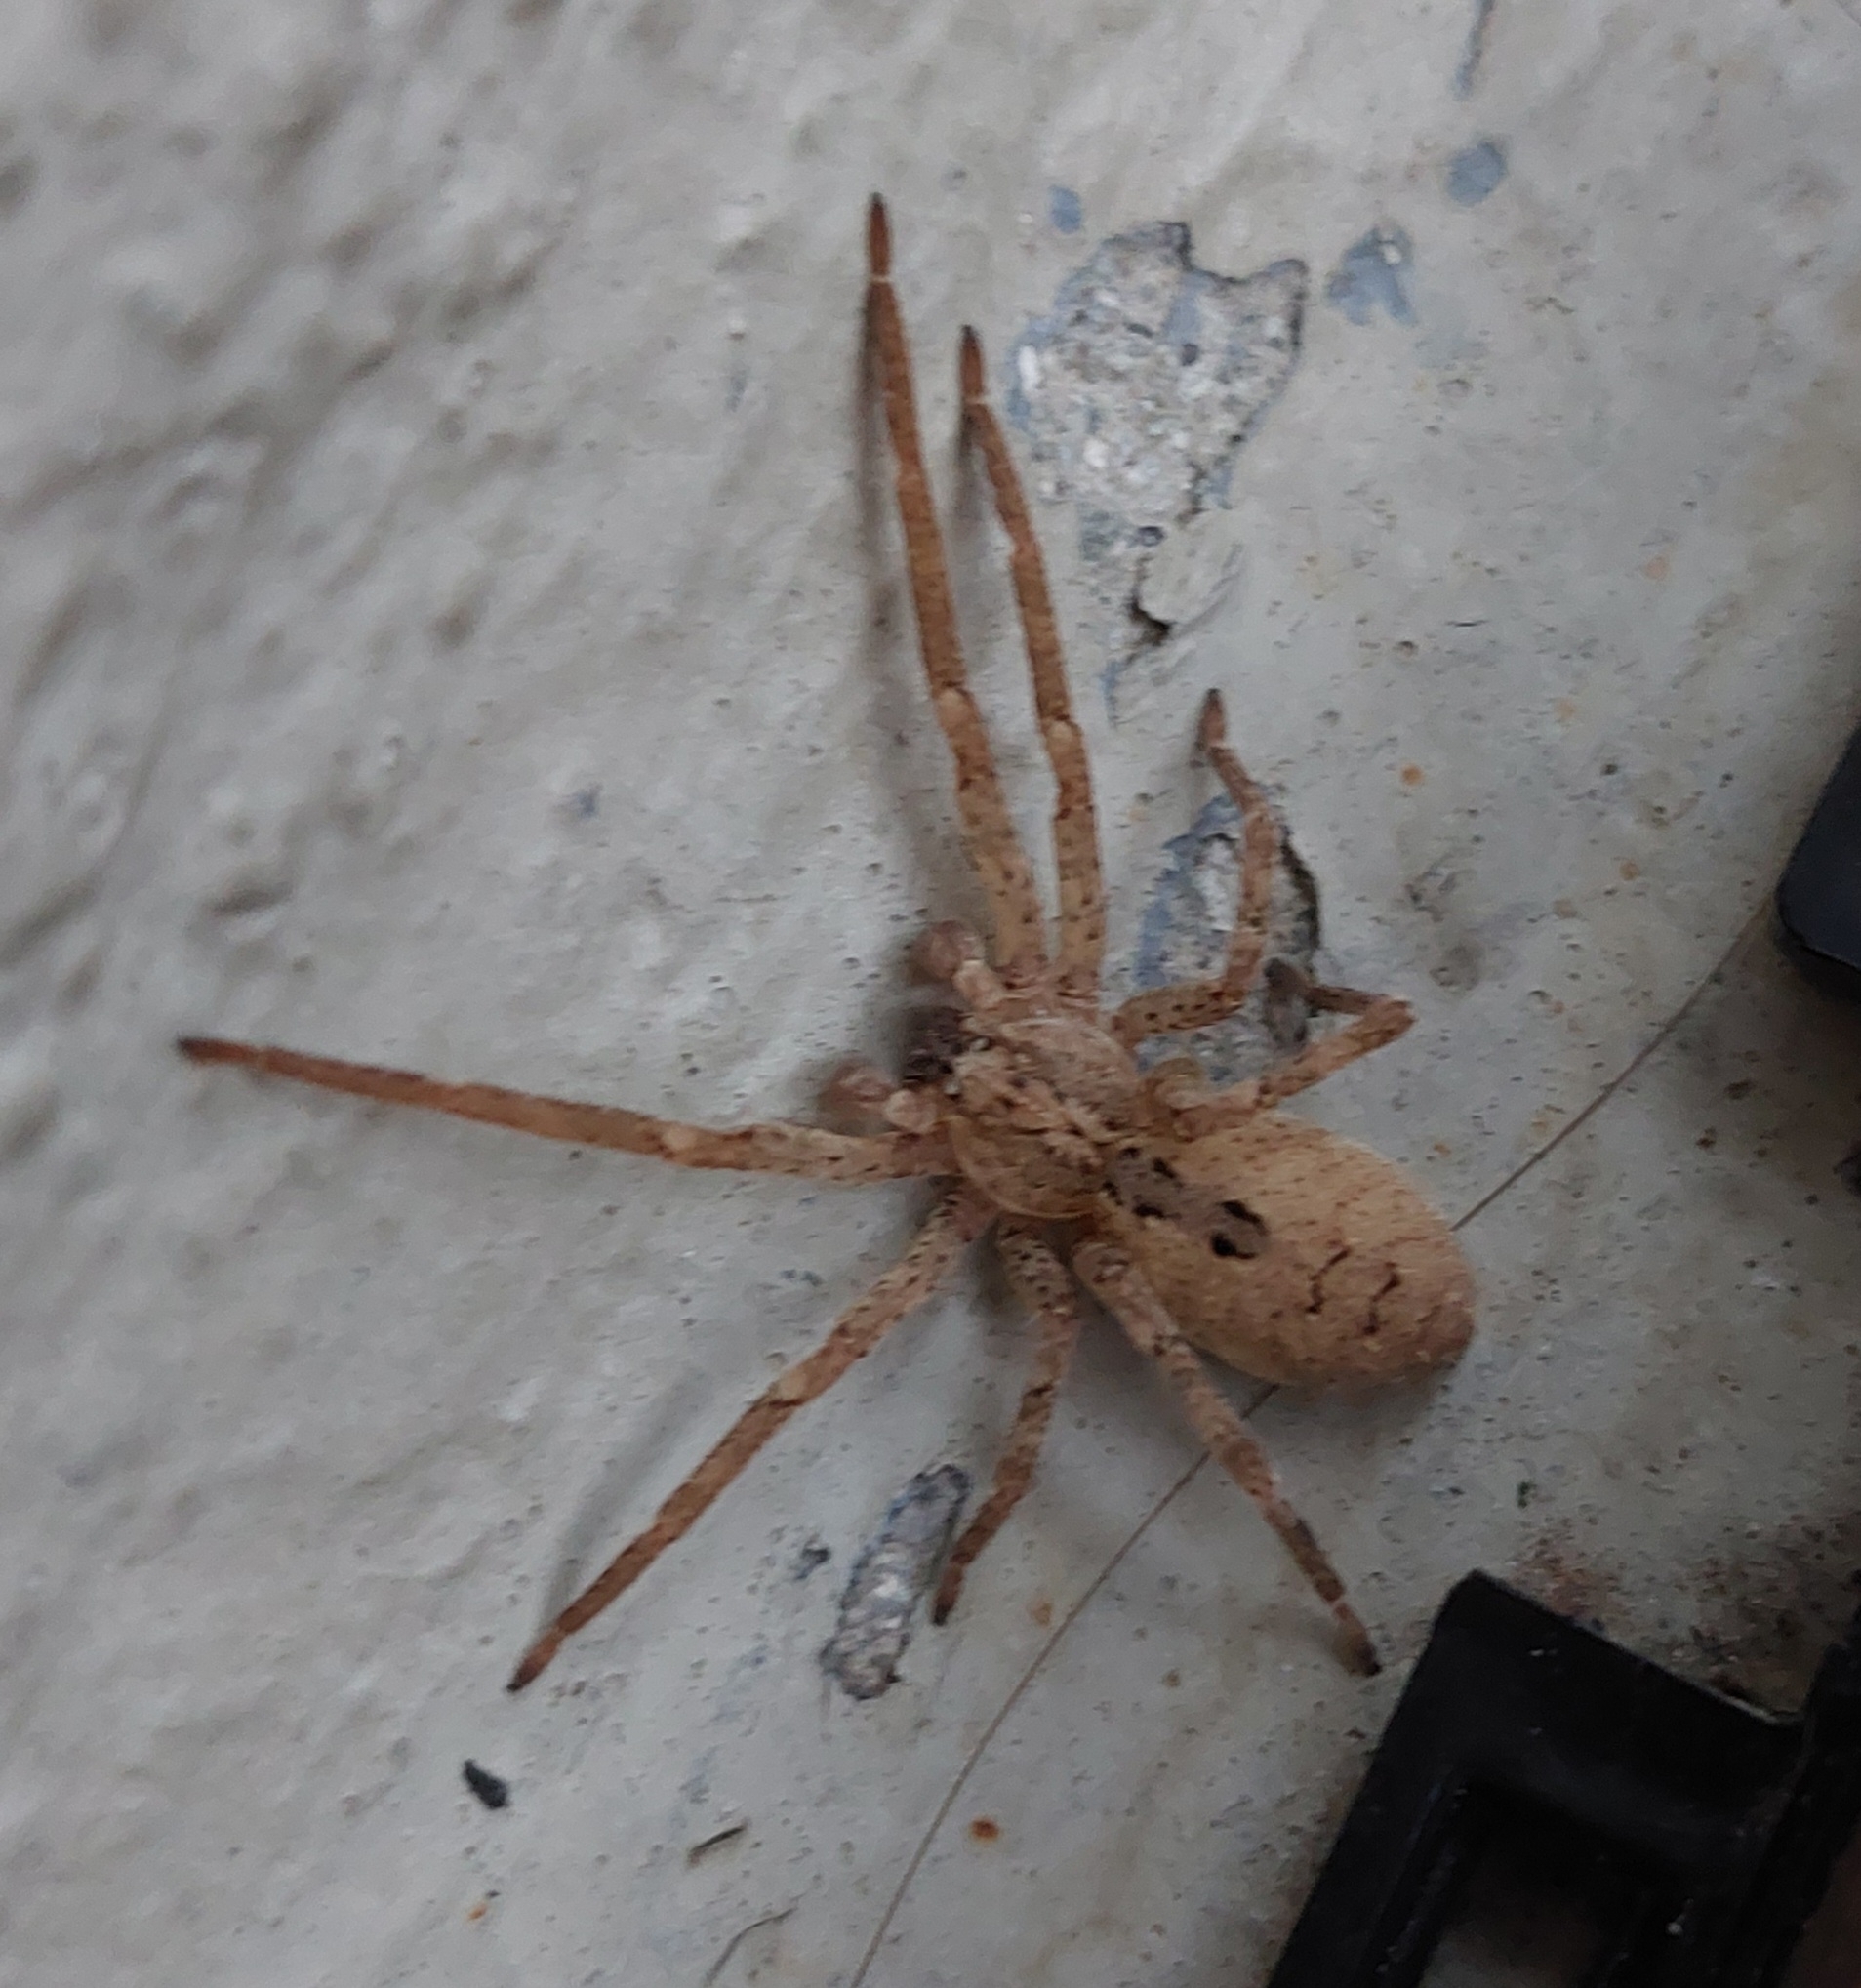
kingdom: Animalia
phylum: Arthropoda
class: Arachnida
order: Araneae
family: Zoropsidae
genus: Zoropsis
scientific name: Zoropsis spinimana
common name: Zoropsid spider
